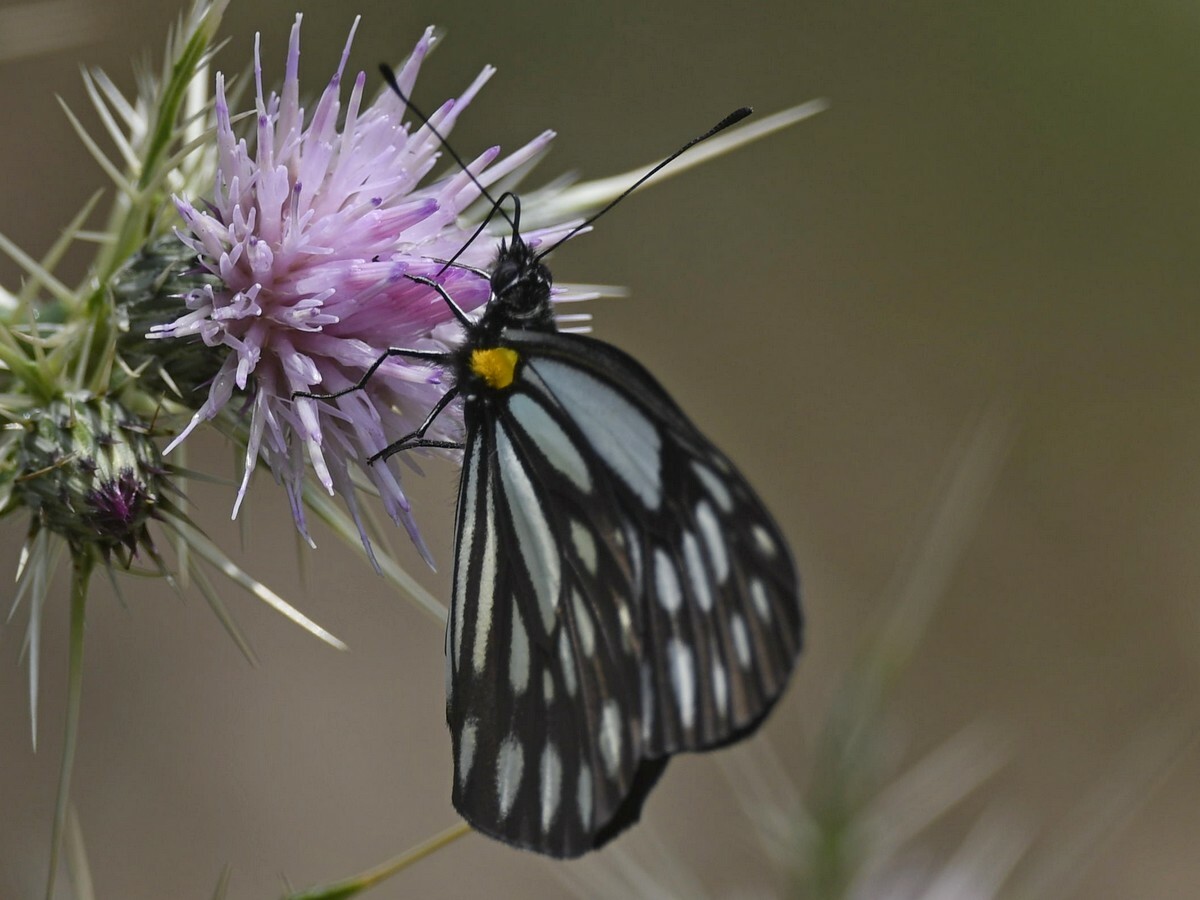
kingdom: Animalia
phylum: Arthropoda
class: Insecta
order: Lepidoptera
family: Pieridae
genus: Aporia
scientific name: Aporia agathon
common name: Great blackvein
